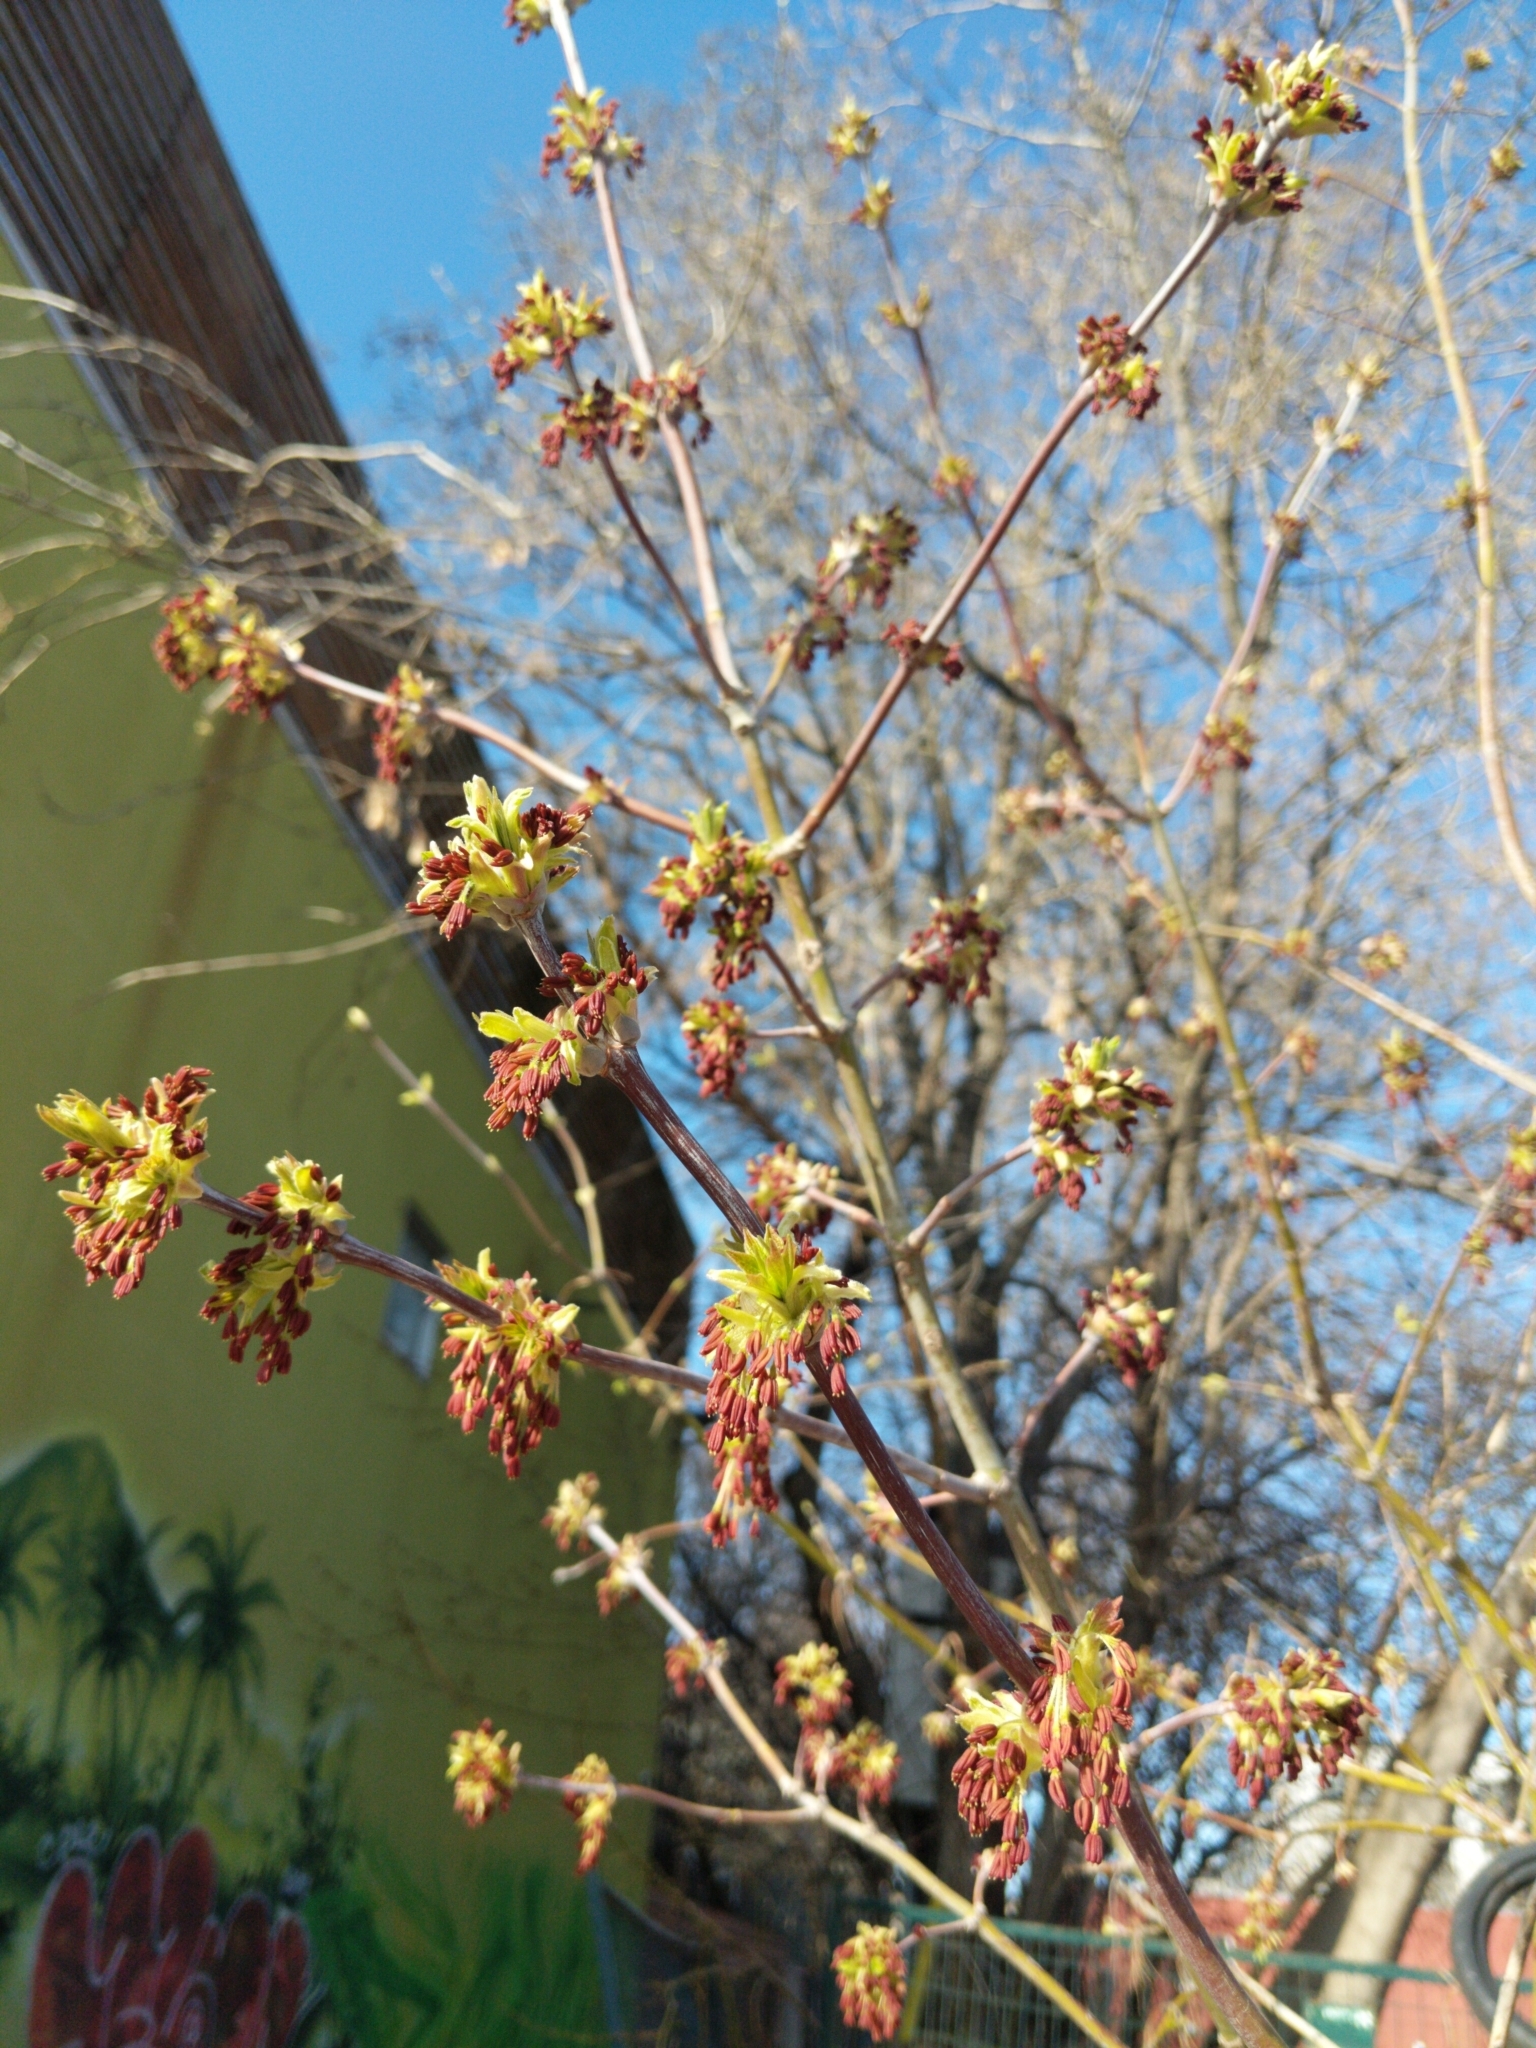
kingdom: Plantae
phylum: Tracheophyta
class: Magnoliopsida
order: Sapindales
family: Sapindaceae
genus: Acer
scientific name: Acer negundo
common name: Ashleaf maple
